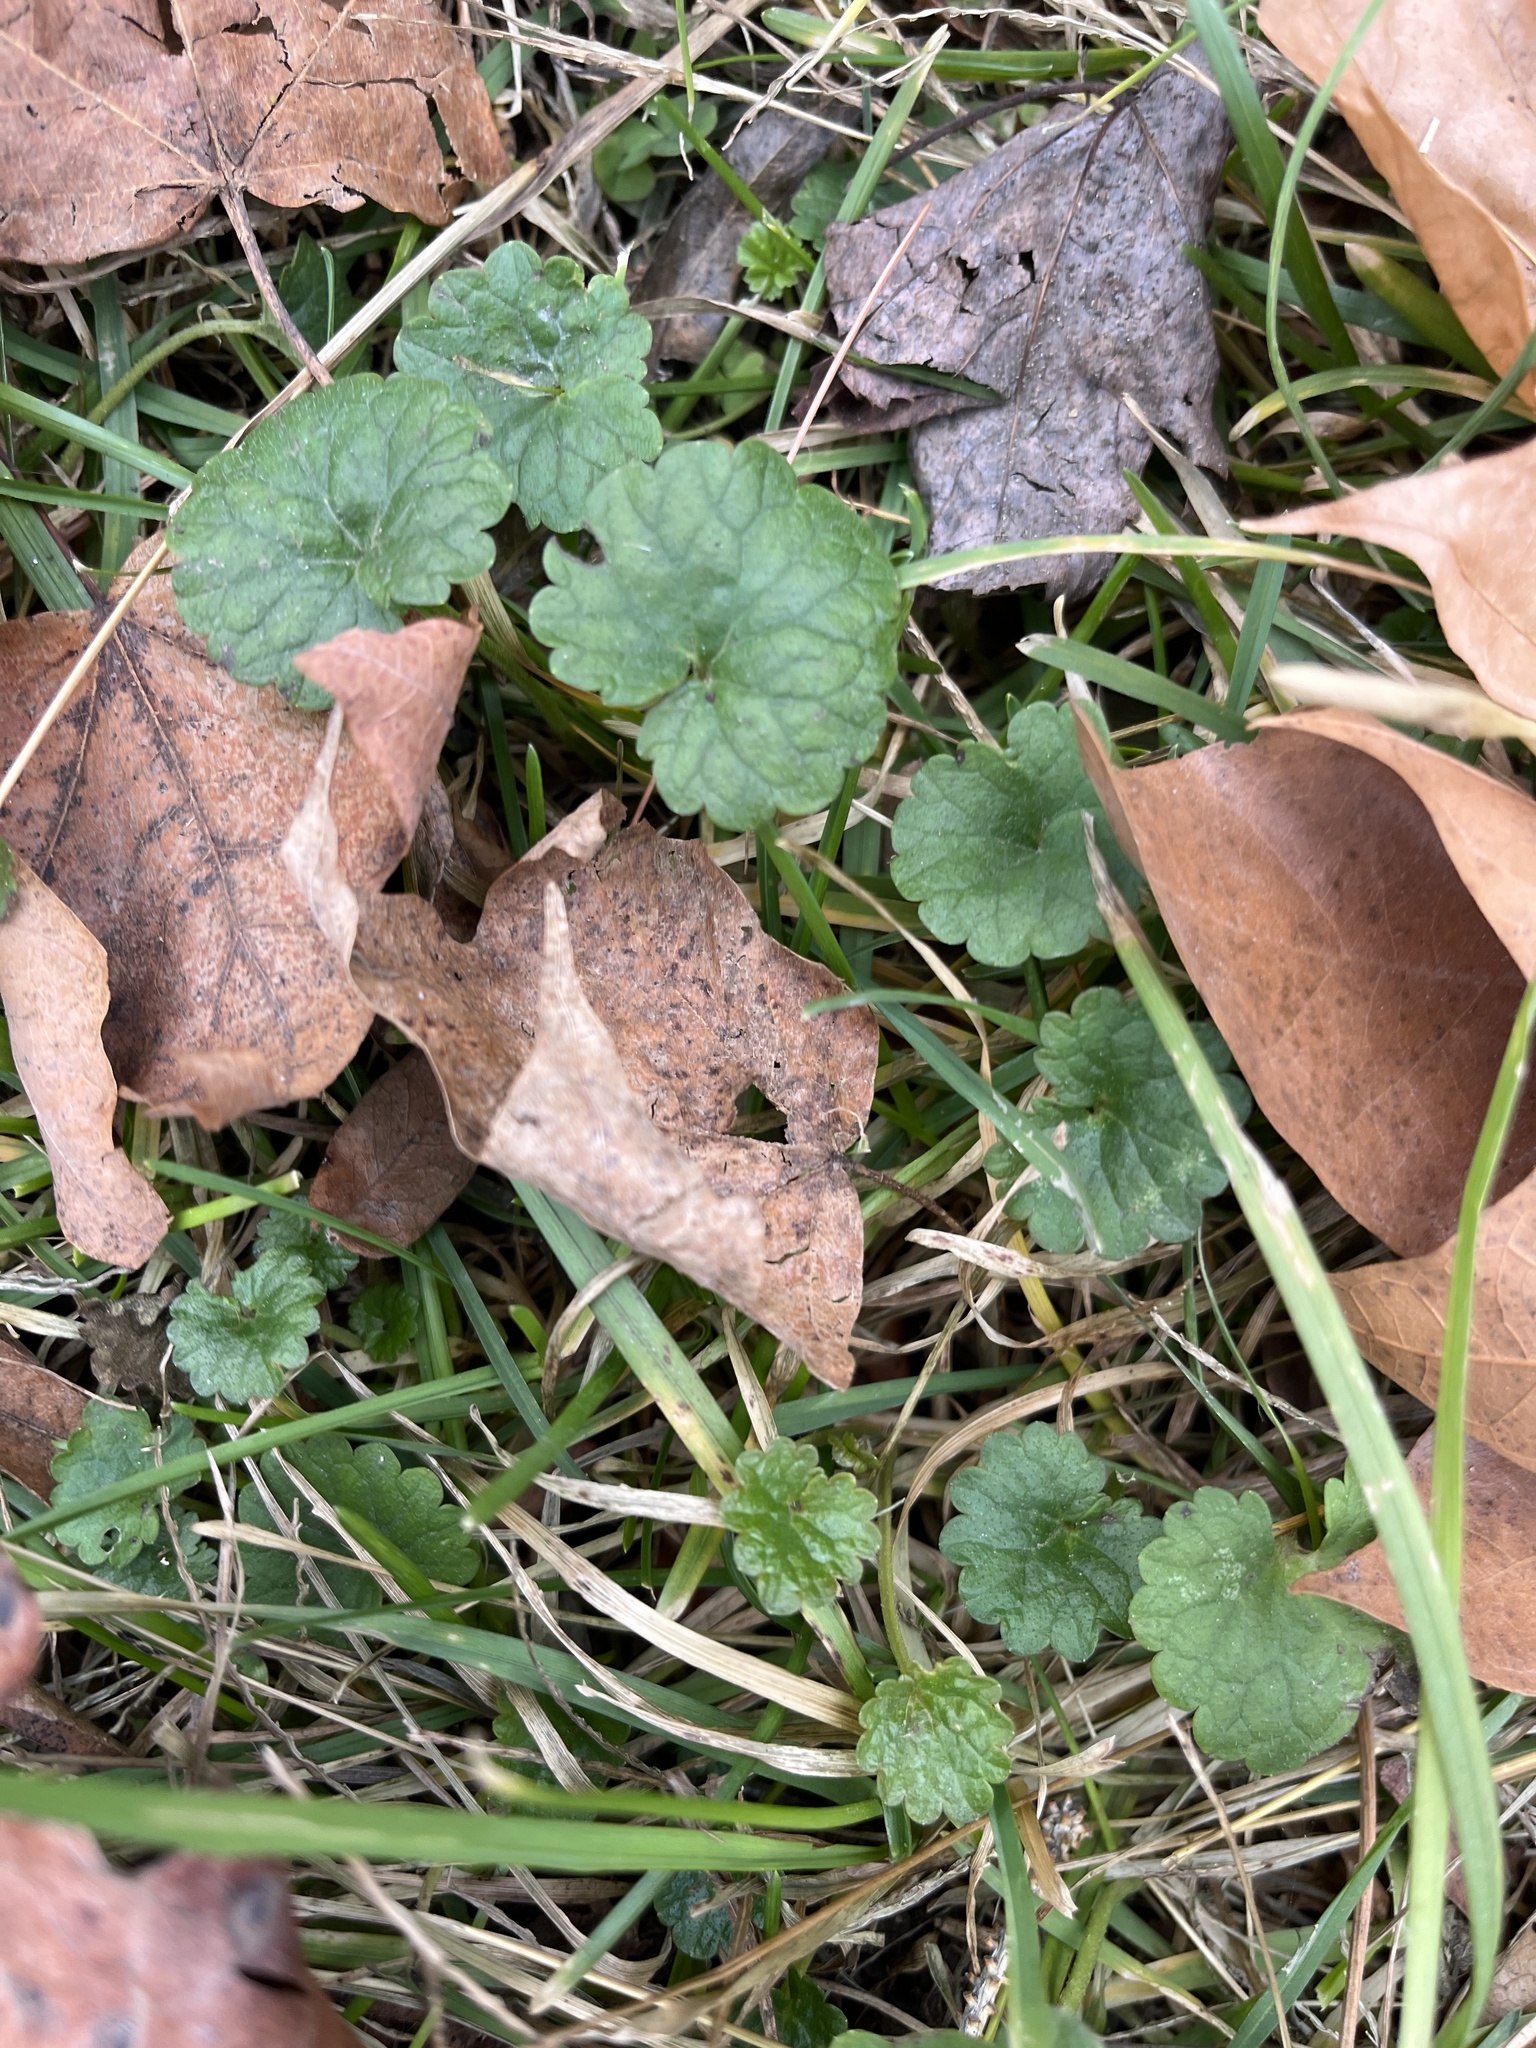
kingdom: Plantae
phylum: Tracheophyta
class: Magnoliopsida
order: Lamiales
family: Lamiaceae
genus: Glechoma
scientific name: Glechoma hederacea
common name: Ground ivy
